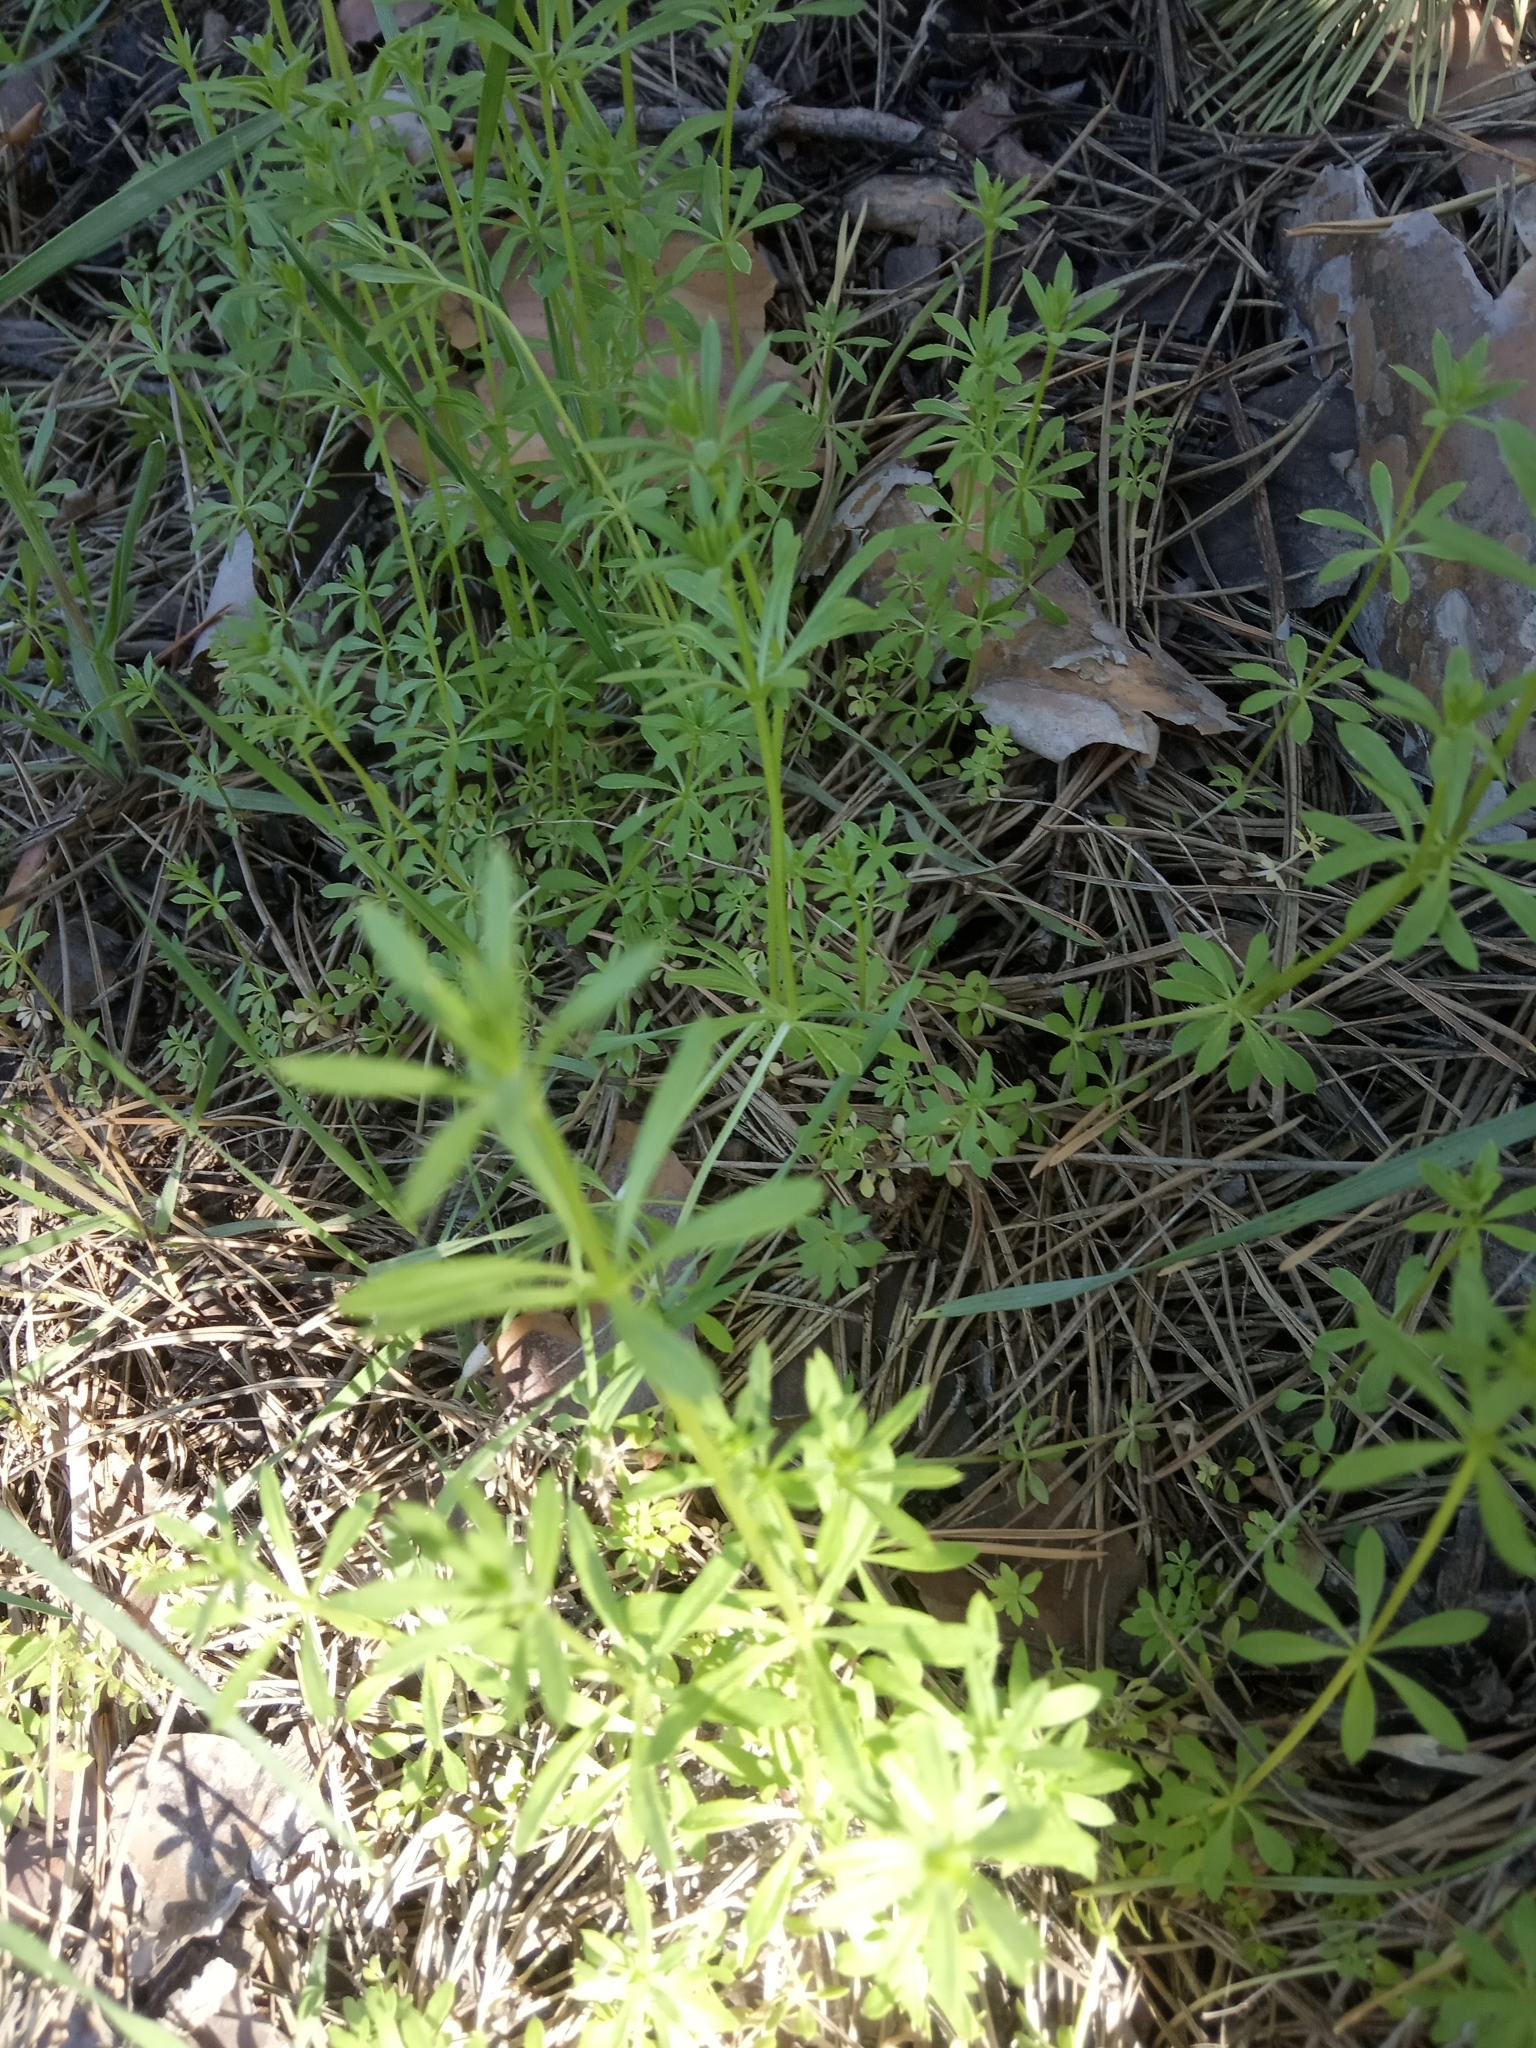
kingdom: Plantae
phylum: Tracheophyta
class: Magnoliopsida
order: Gentianales
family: Rubiaceae
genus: Galium
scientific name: Galium aparine
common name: Cleavers
